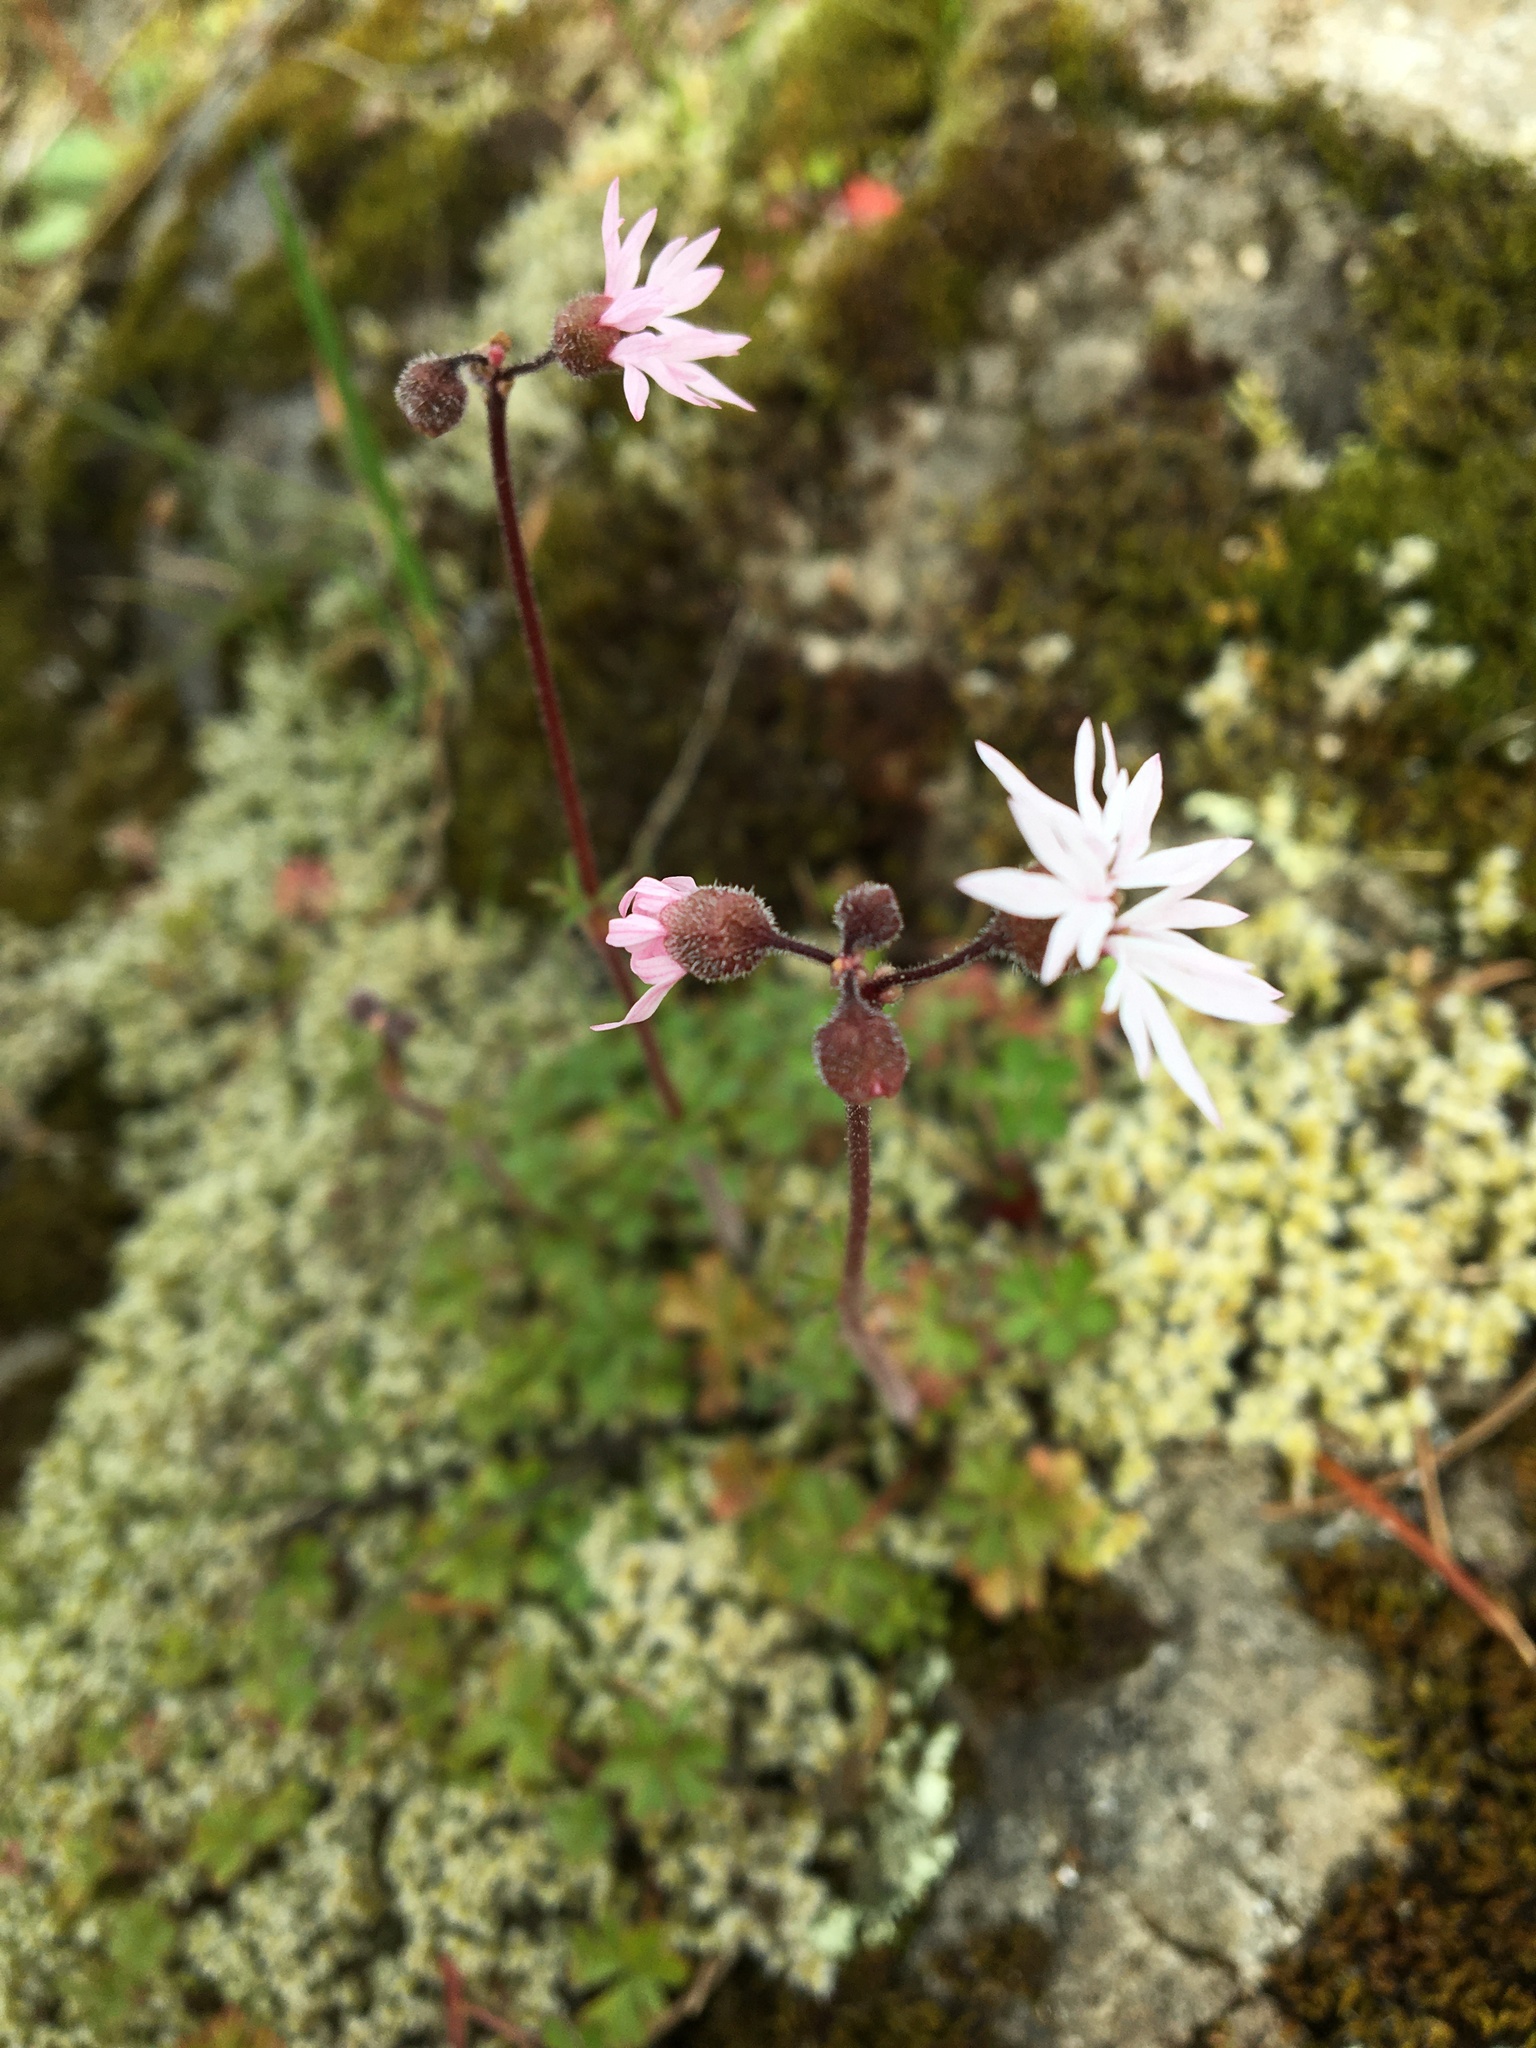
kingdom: Plantae
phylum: Tracheophyta
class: Magnoliopsida
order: Saxifragales
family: Saxifragaceae
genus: Lithophragma
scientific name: Lithophragma glabrum
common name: Bulbous prairie-star
